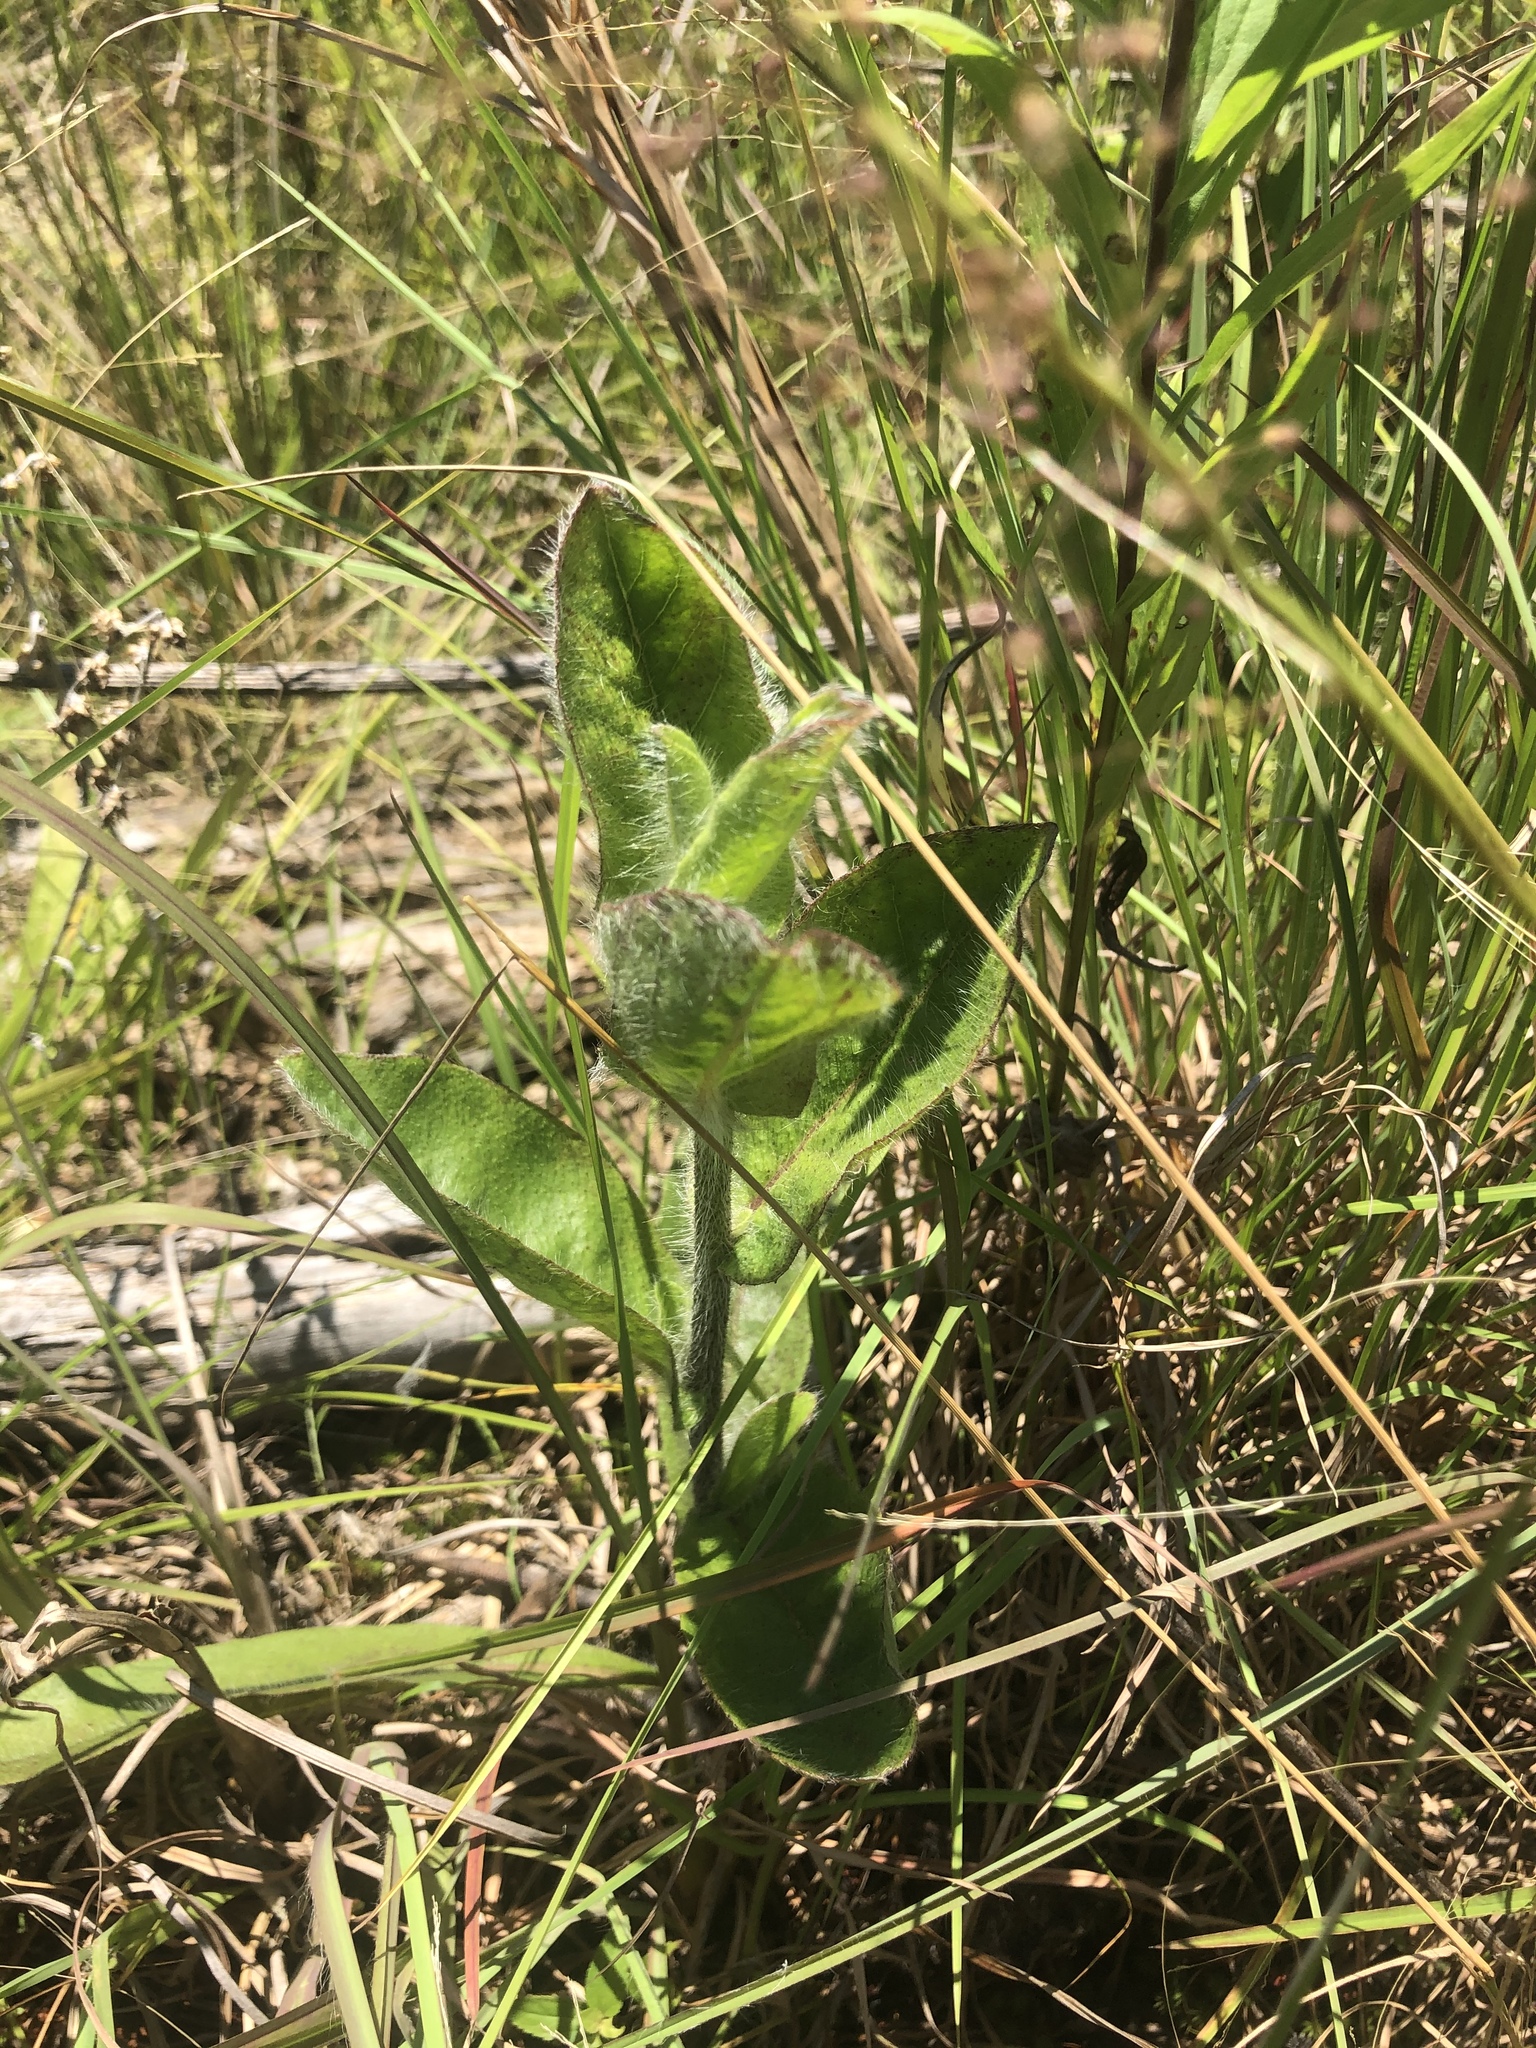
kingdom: Plantae
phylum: Tracheophyta
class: Magnoliopsida
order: Asterales
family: Asteraceae
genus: Hieracium
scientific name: Hieracium gronovii
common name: Beaked hawkweed
